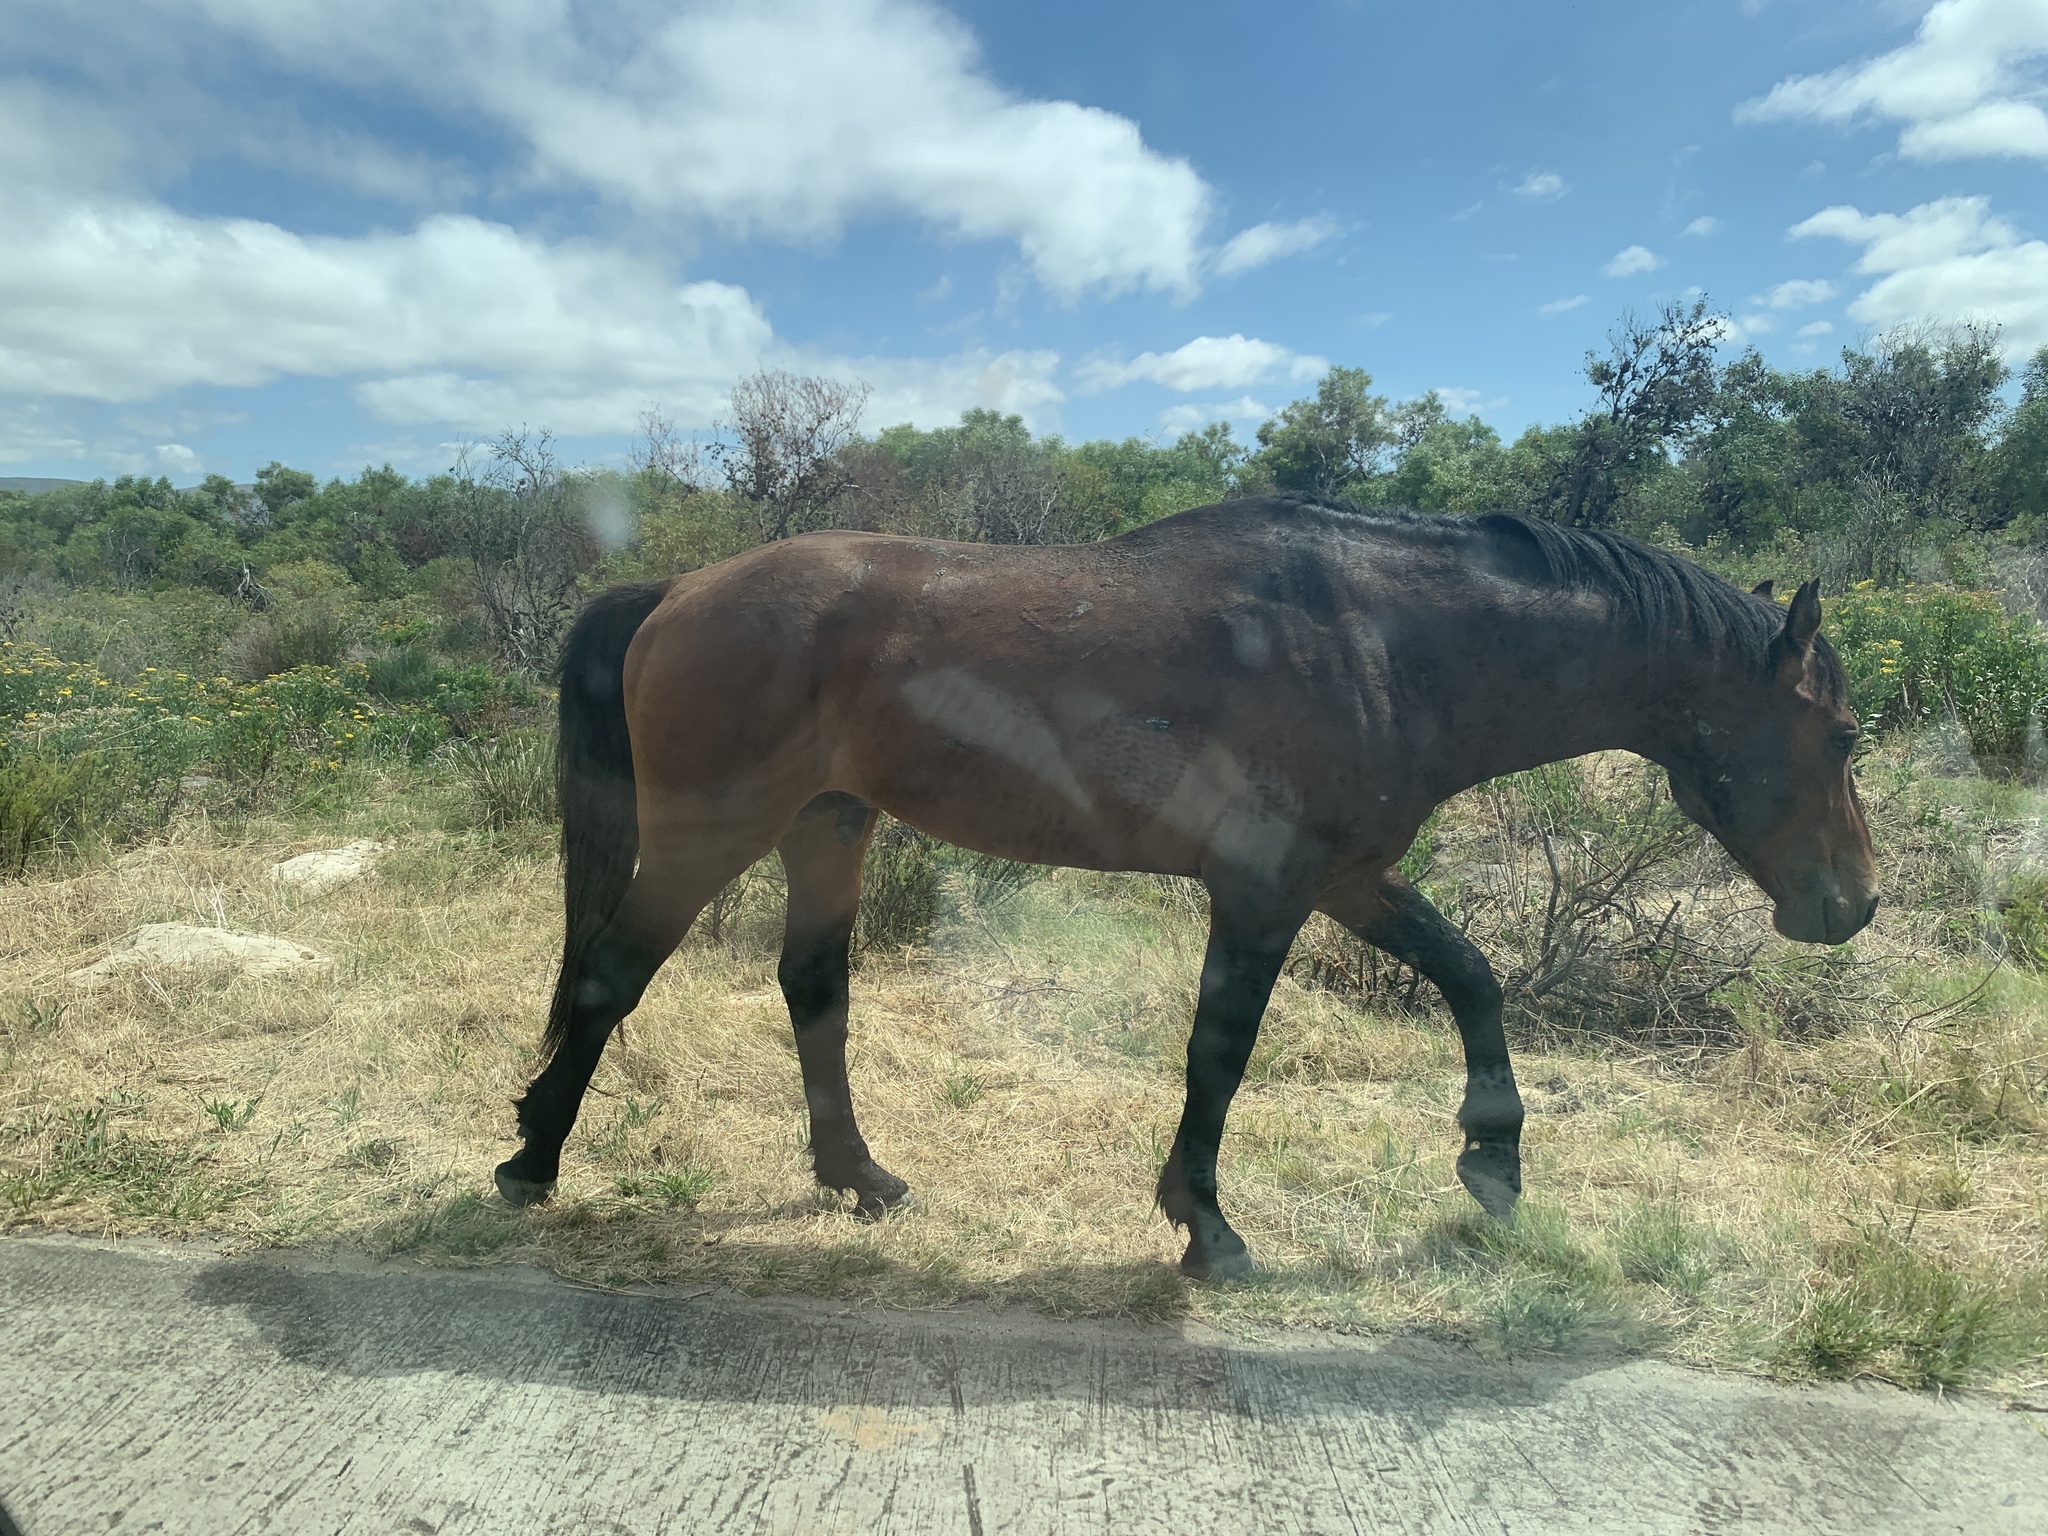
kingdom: Animalia
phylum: Chordata
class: Mammalia
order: Perissodactyla
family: Equidae
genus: Equus
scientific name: Equus caballus
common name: Horse
